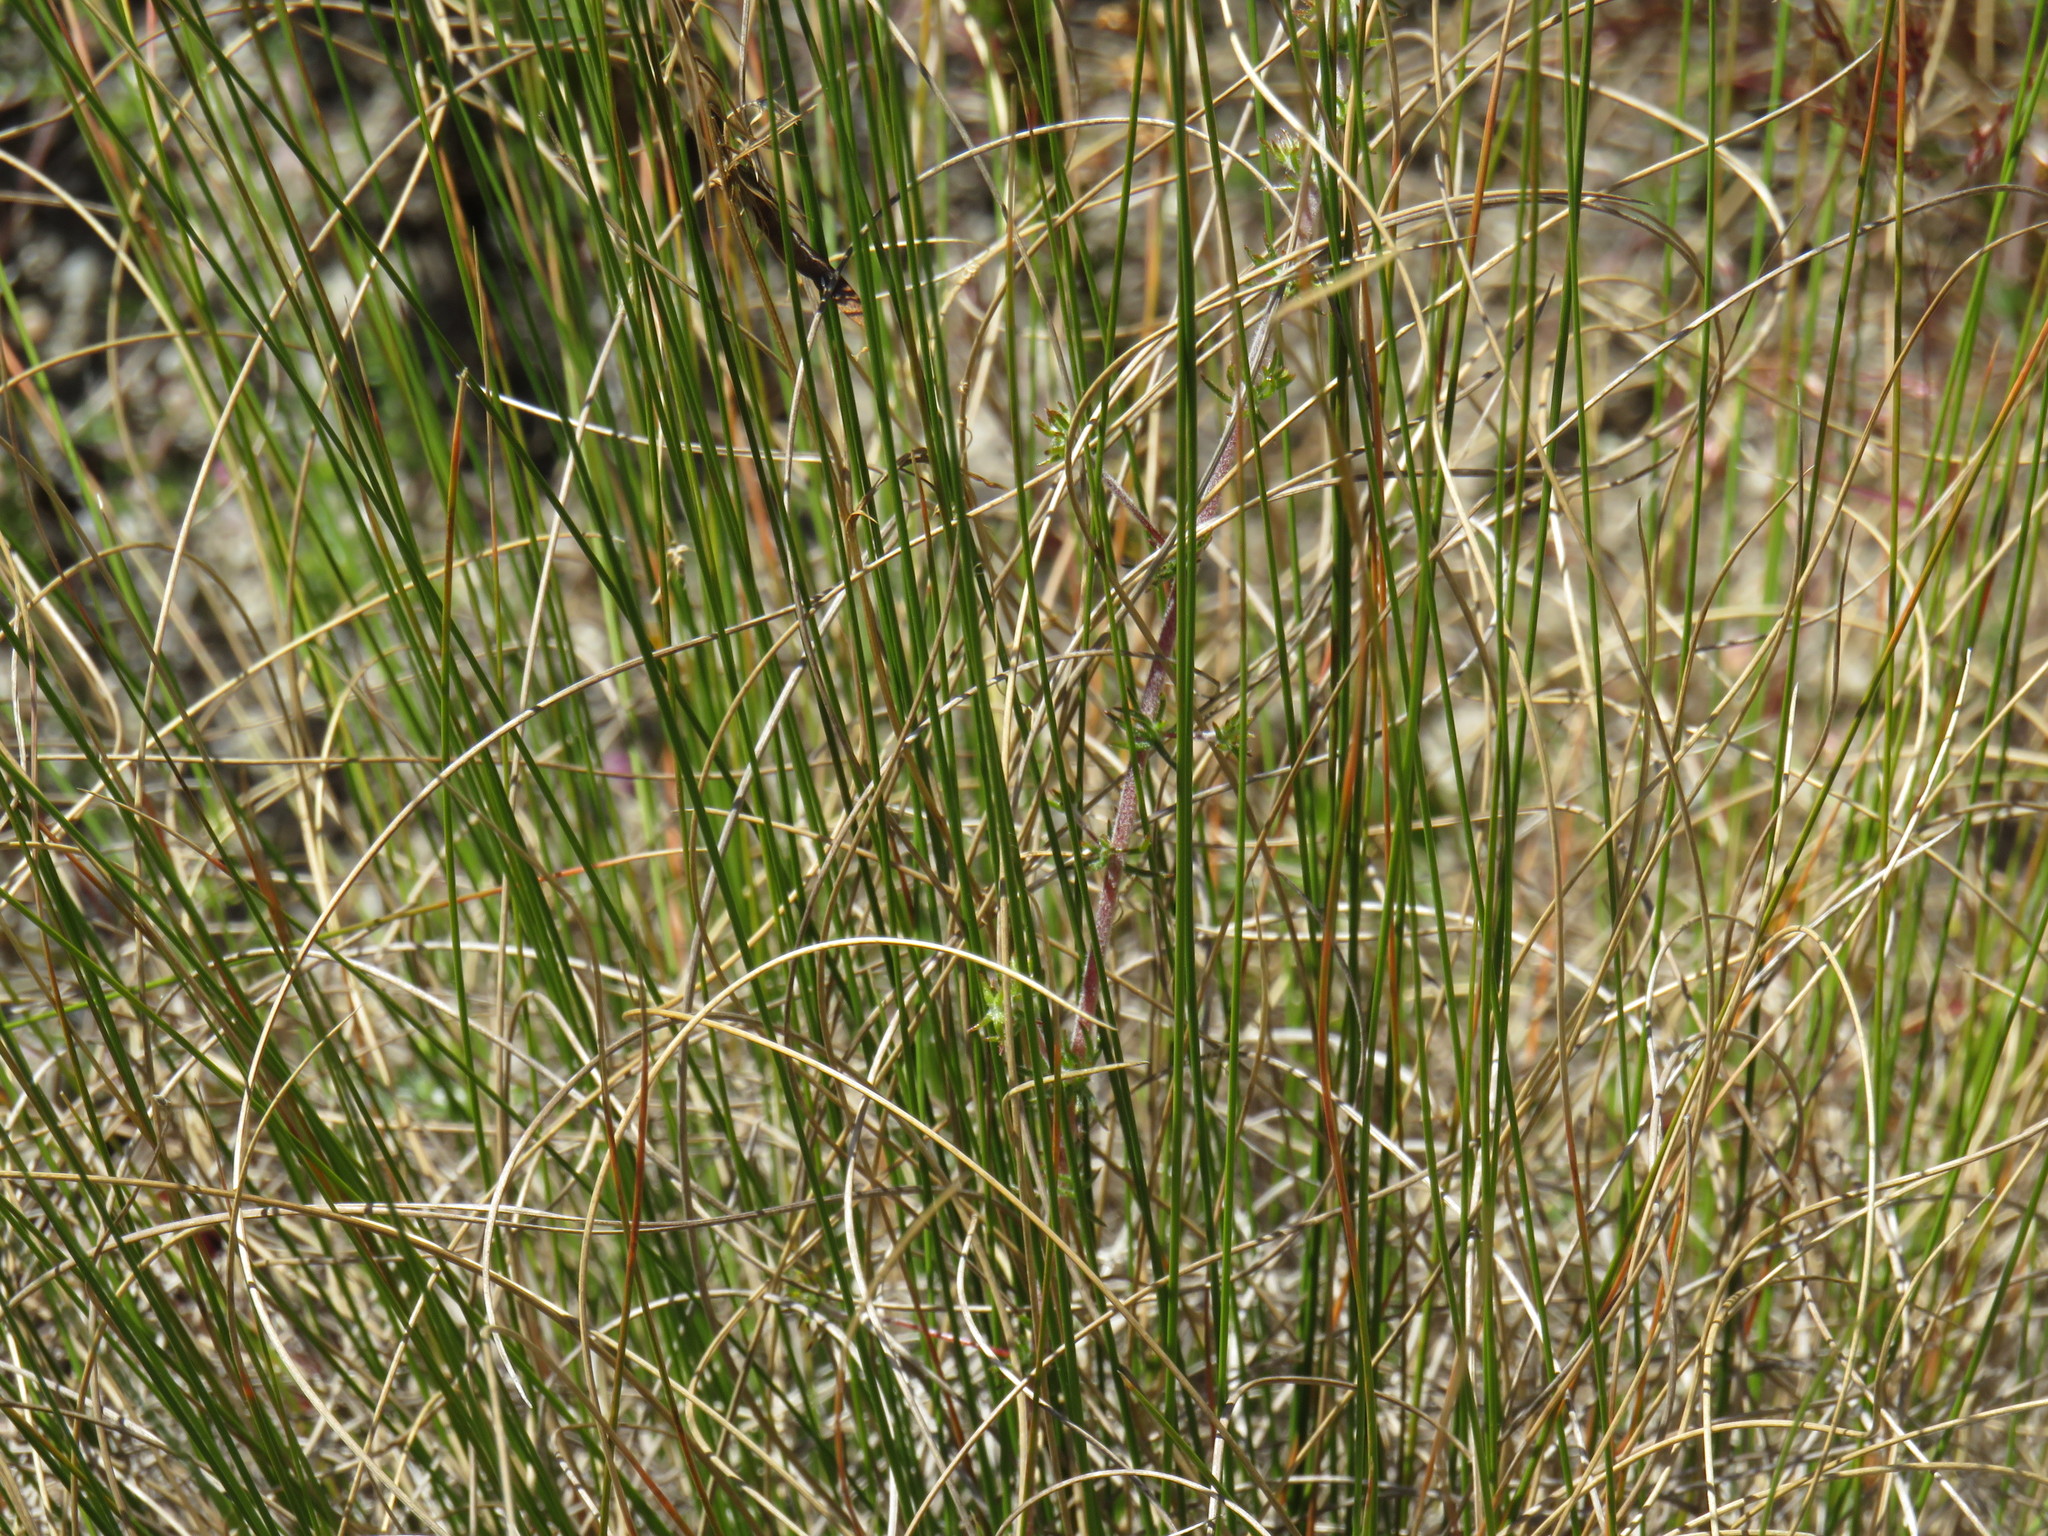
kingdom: Plantae
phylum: Tracheophyta
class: Liliopsida
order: Poales
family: Poaceae
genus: Tenaxia
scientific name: Tenaxia stricta
